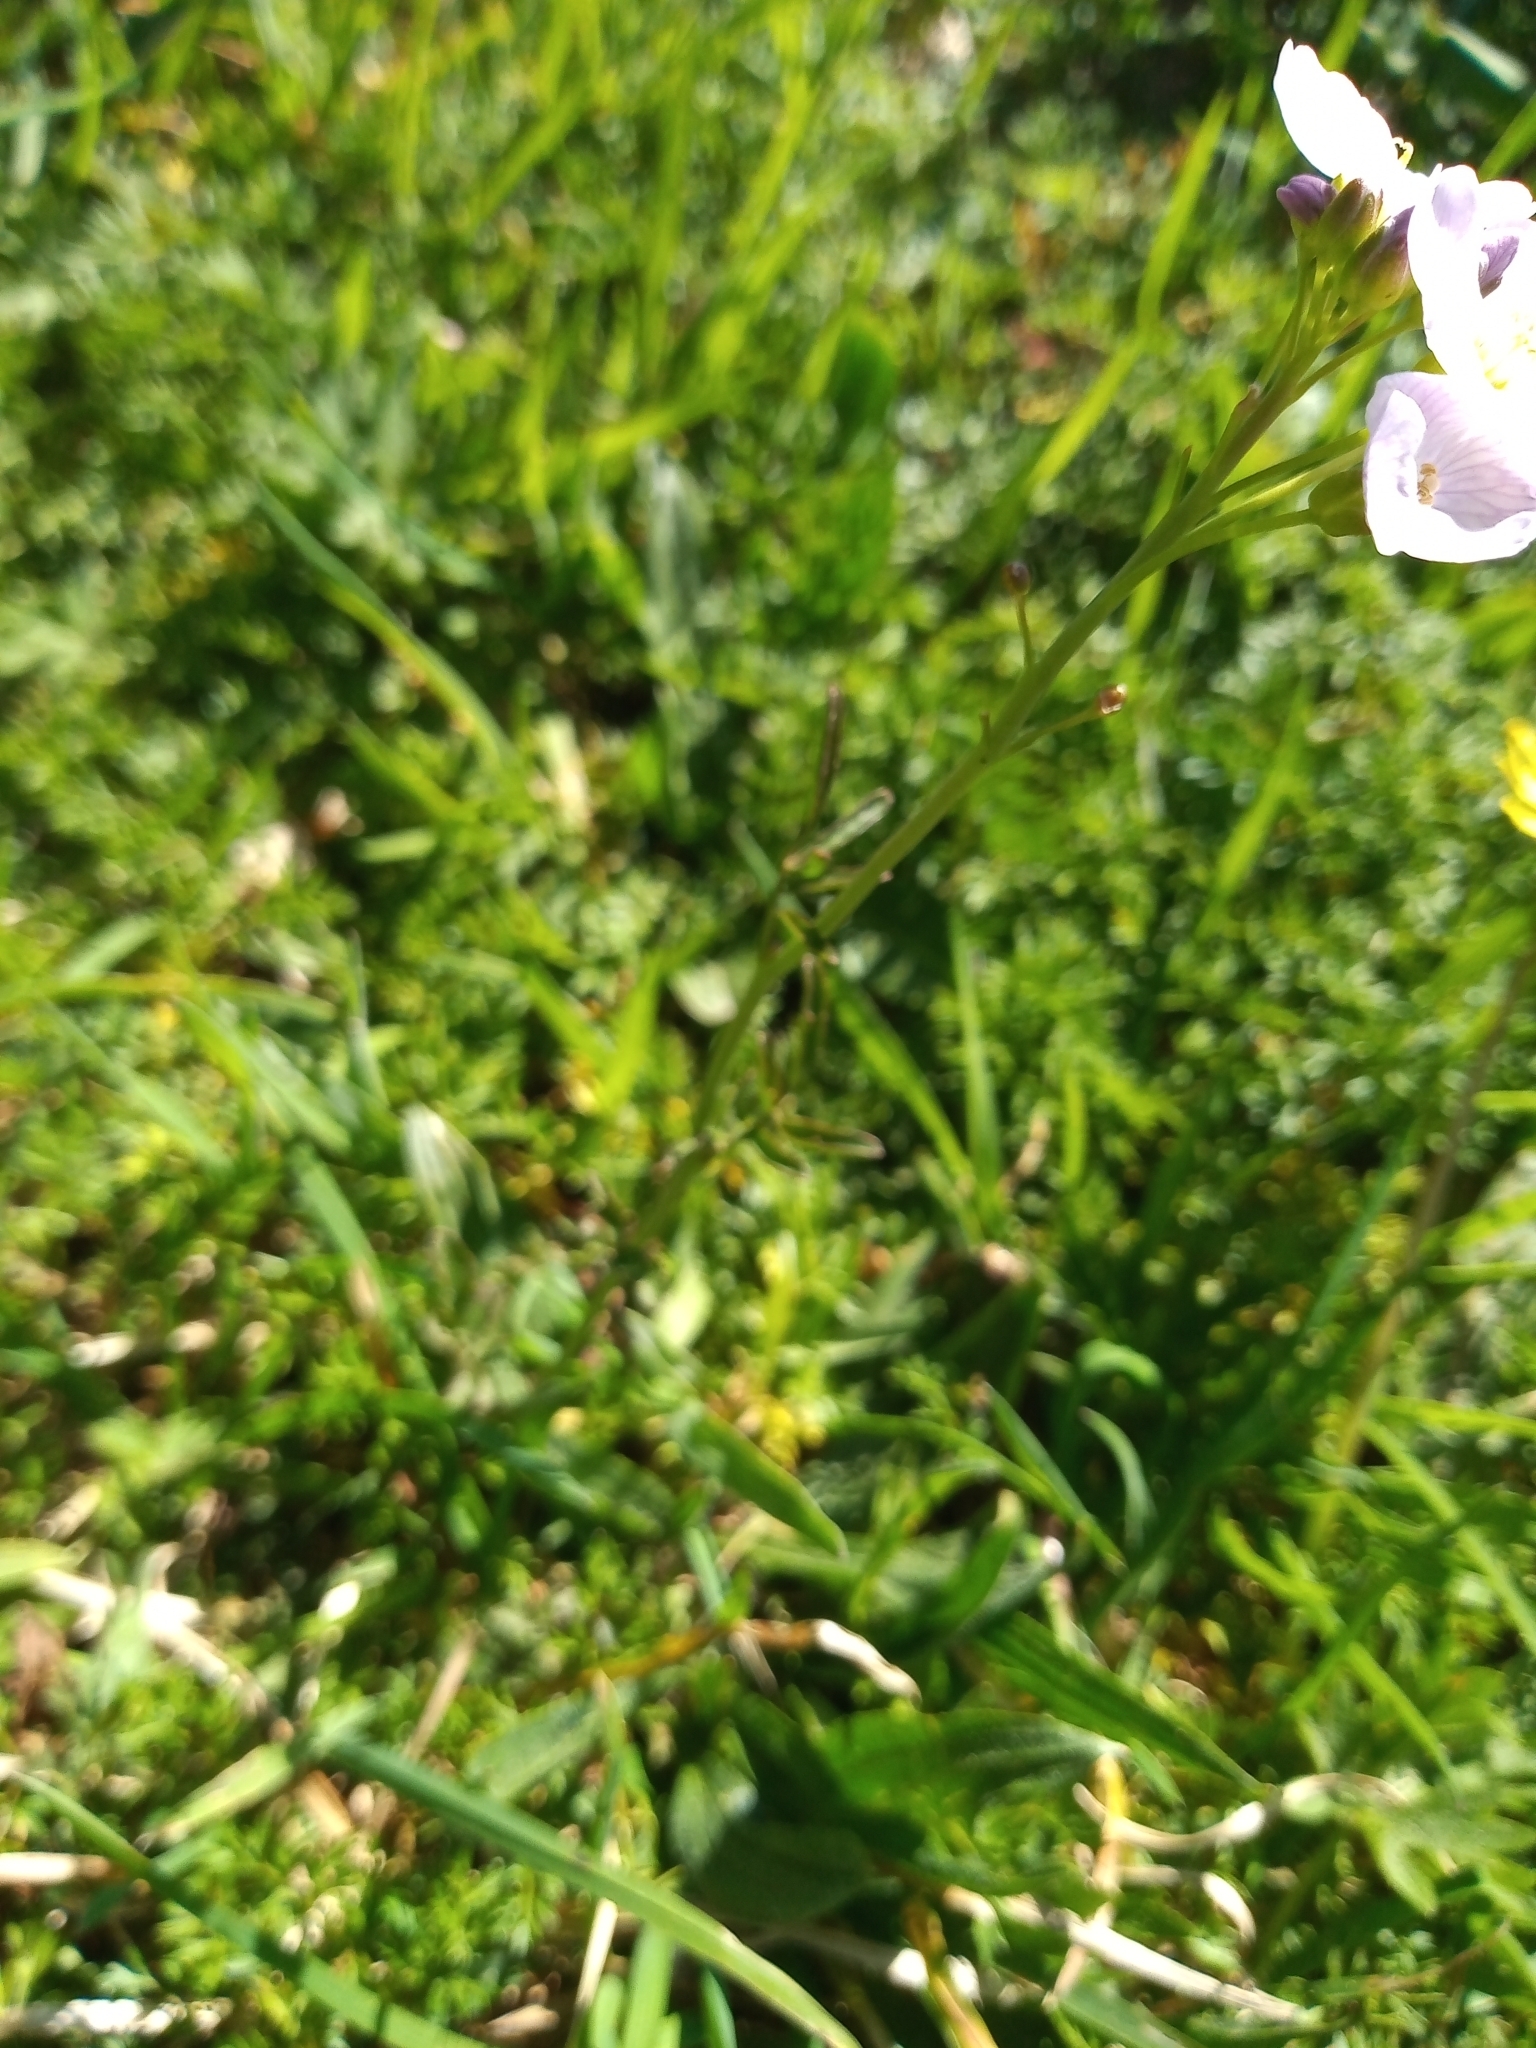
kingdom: Plantae
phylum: Tracheophyta
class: Magnoliopsida
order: Brassicales
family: Brassicaceae
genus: Cardamine
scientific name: Cardamine pratensis
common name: Cuckoo flower
